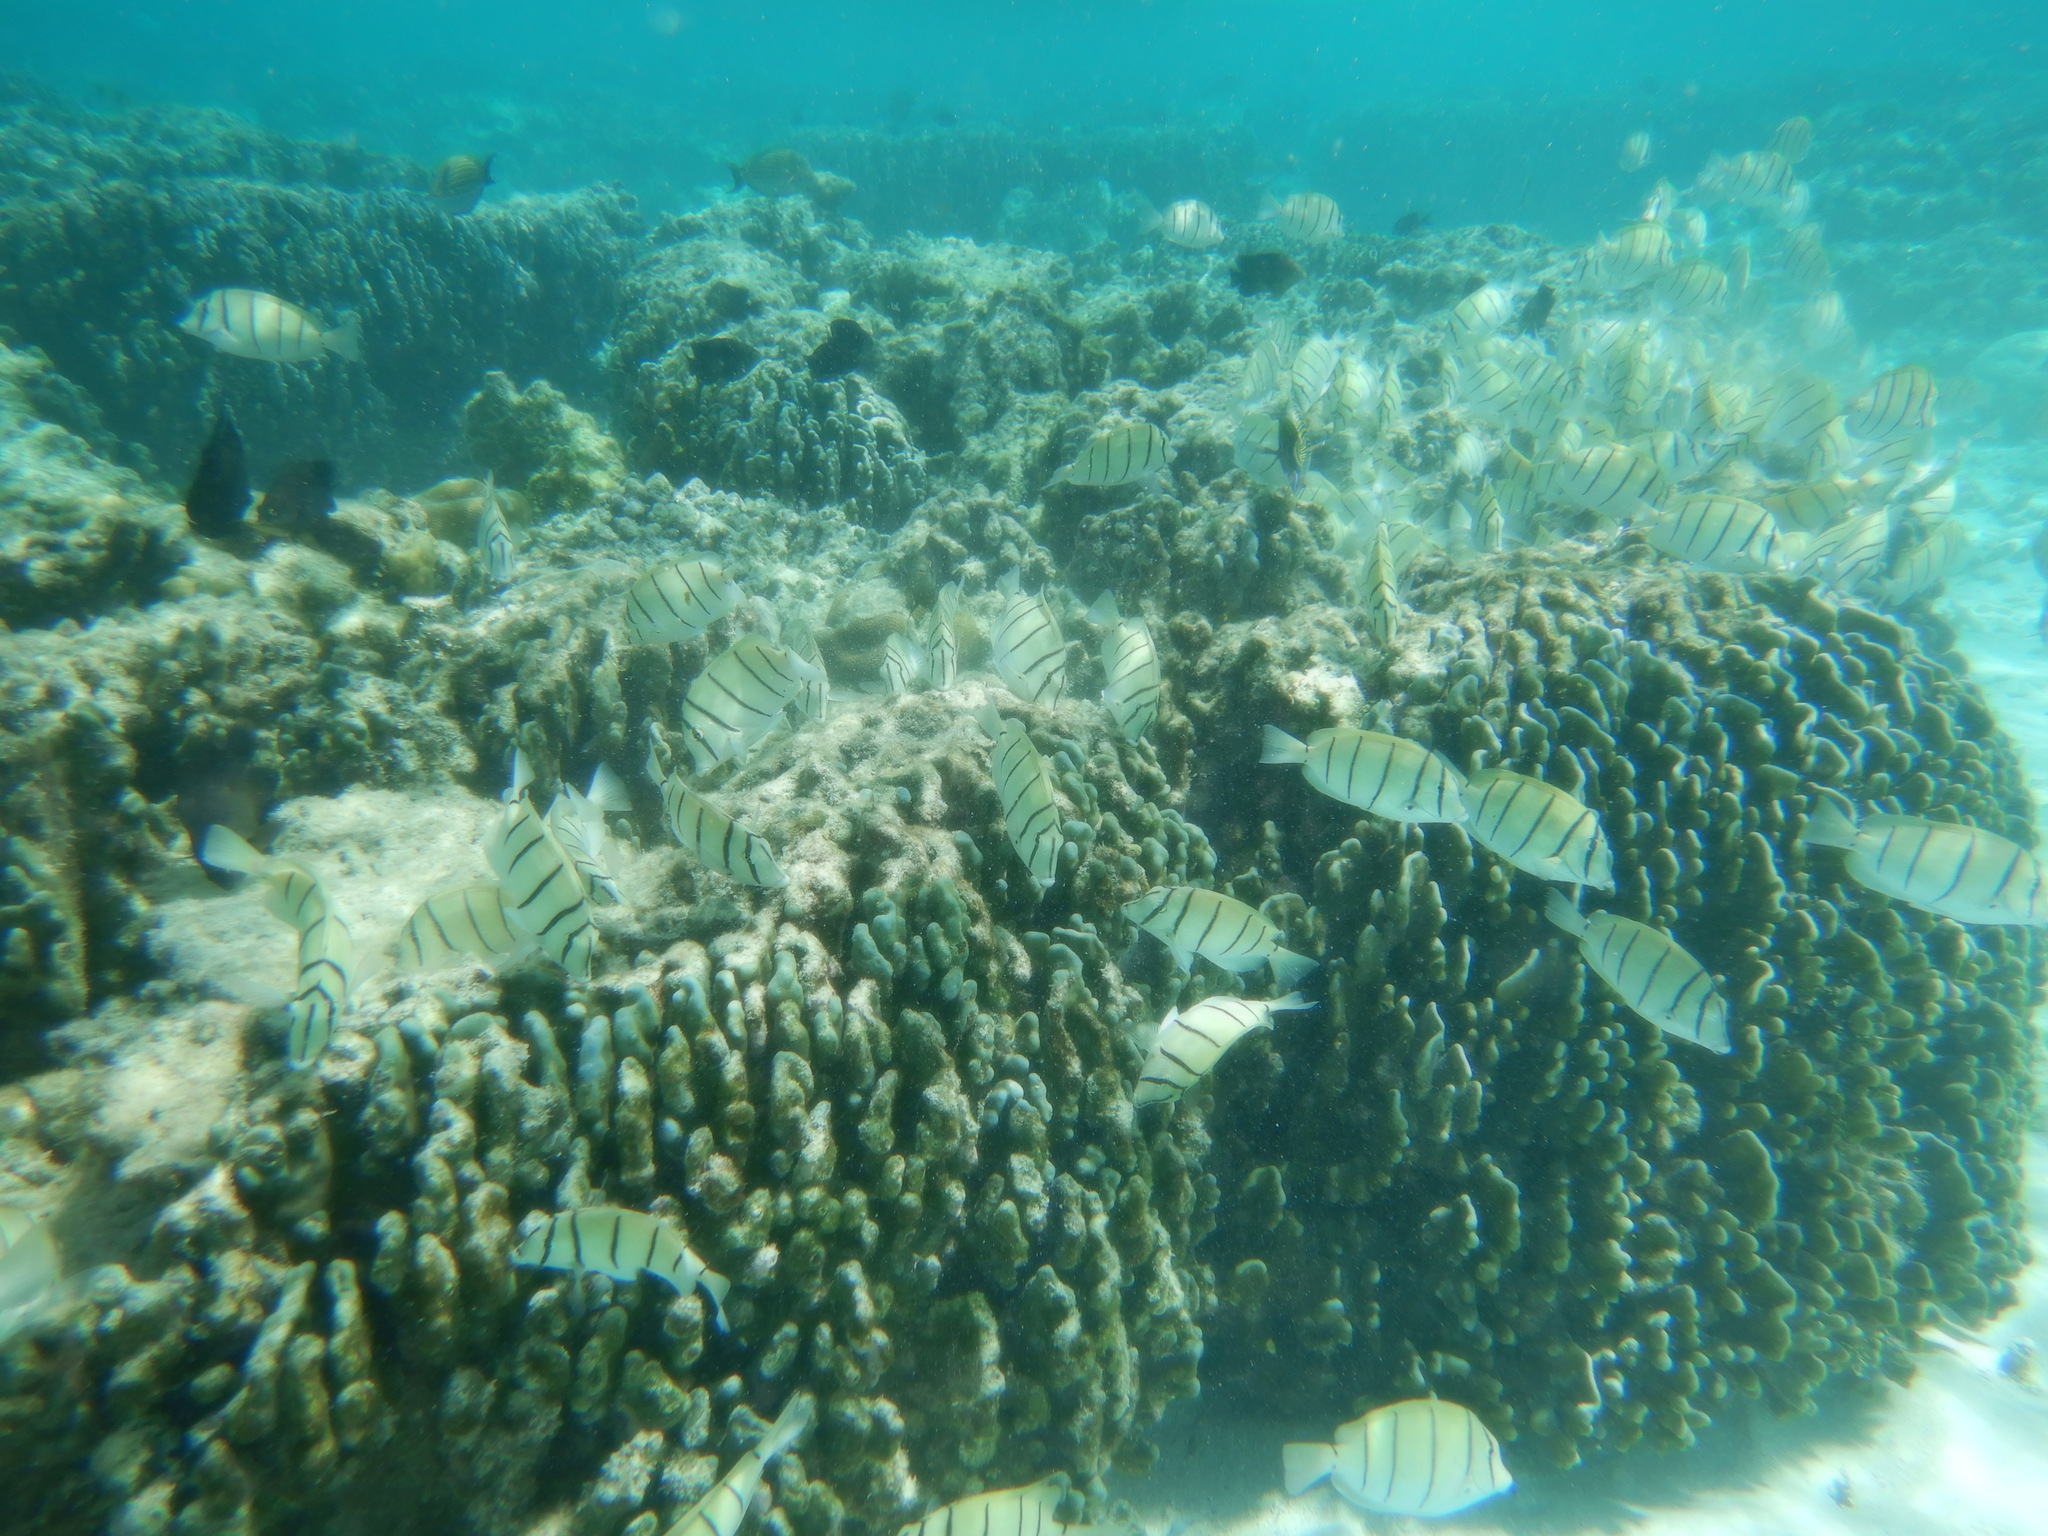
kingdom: Animalia
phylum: Chordata
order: Perciformes
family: Acanthuridae
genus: Acanthurus
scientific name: Acanthurus triostegus
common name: Convict surgeonfish
